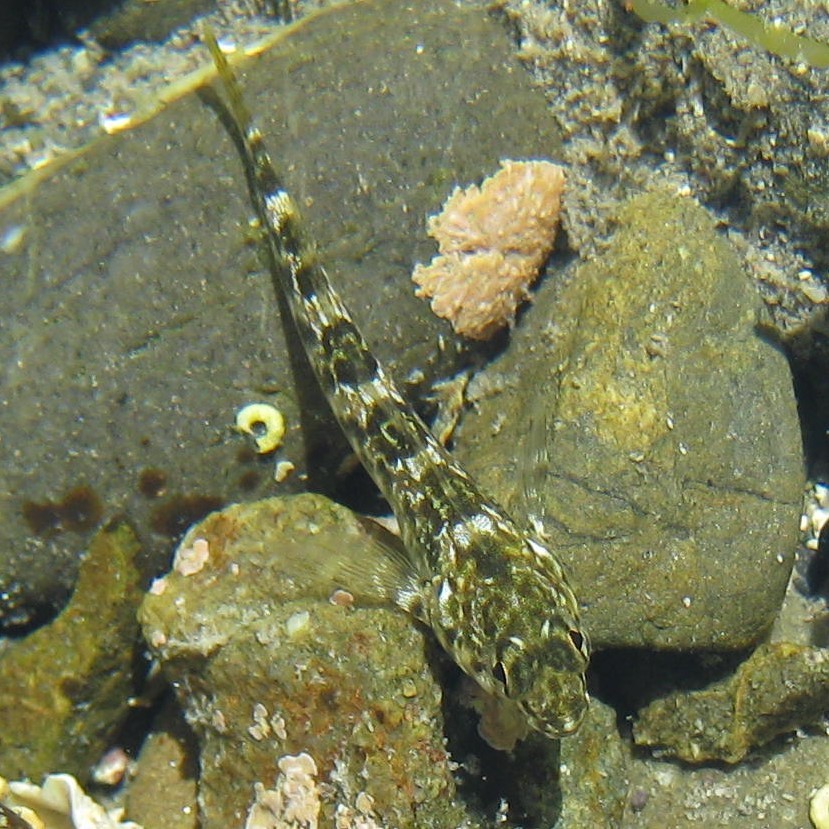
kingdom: Animalia
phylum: Chordata
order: Perciformes
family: Tripterygiidae
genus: Bellapiscis
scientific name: Bellapiscis medius
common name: Twister
